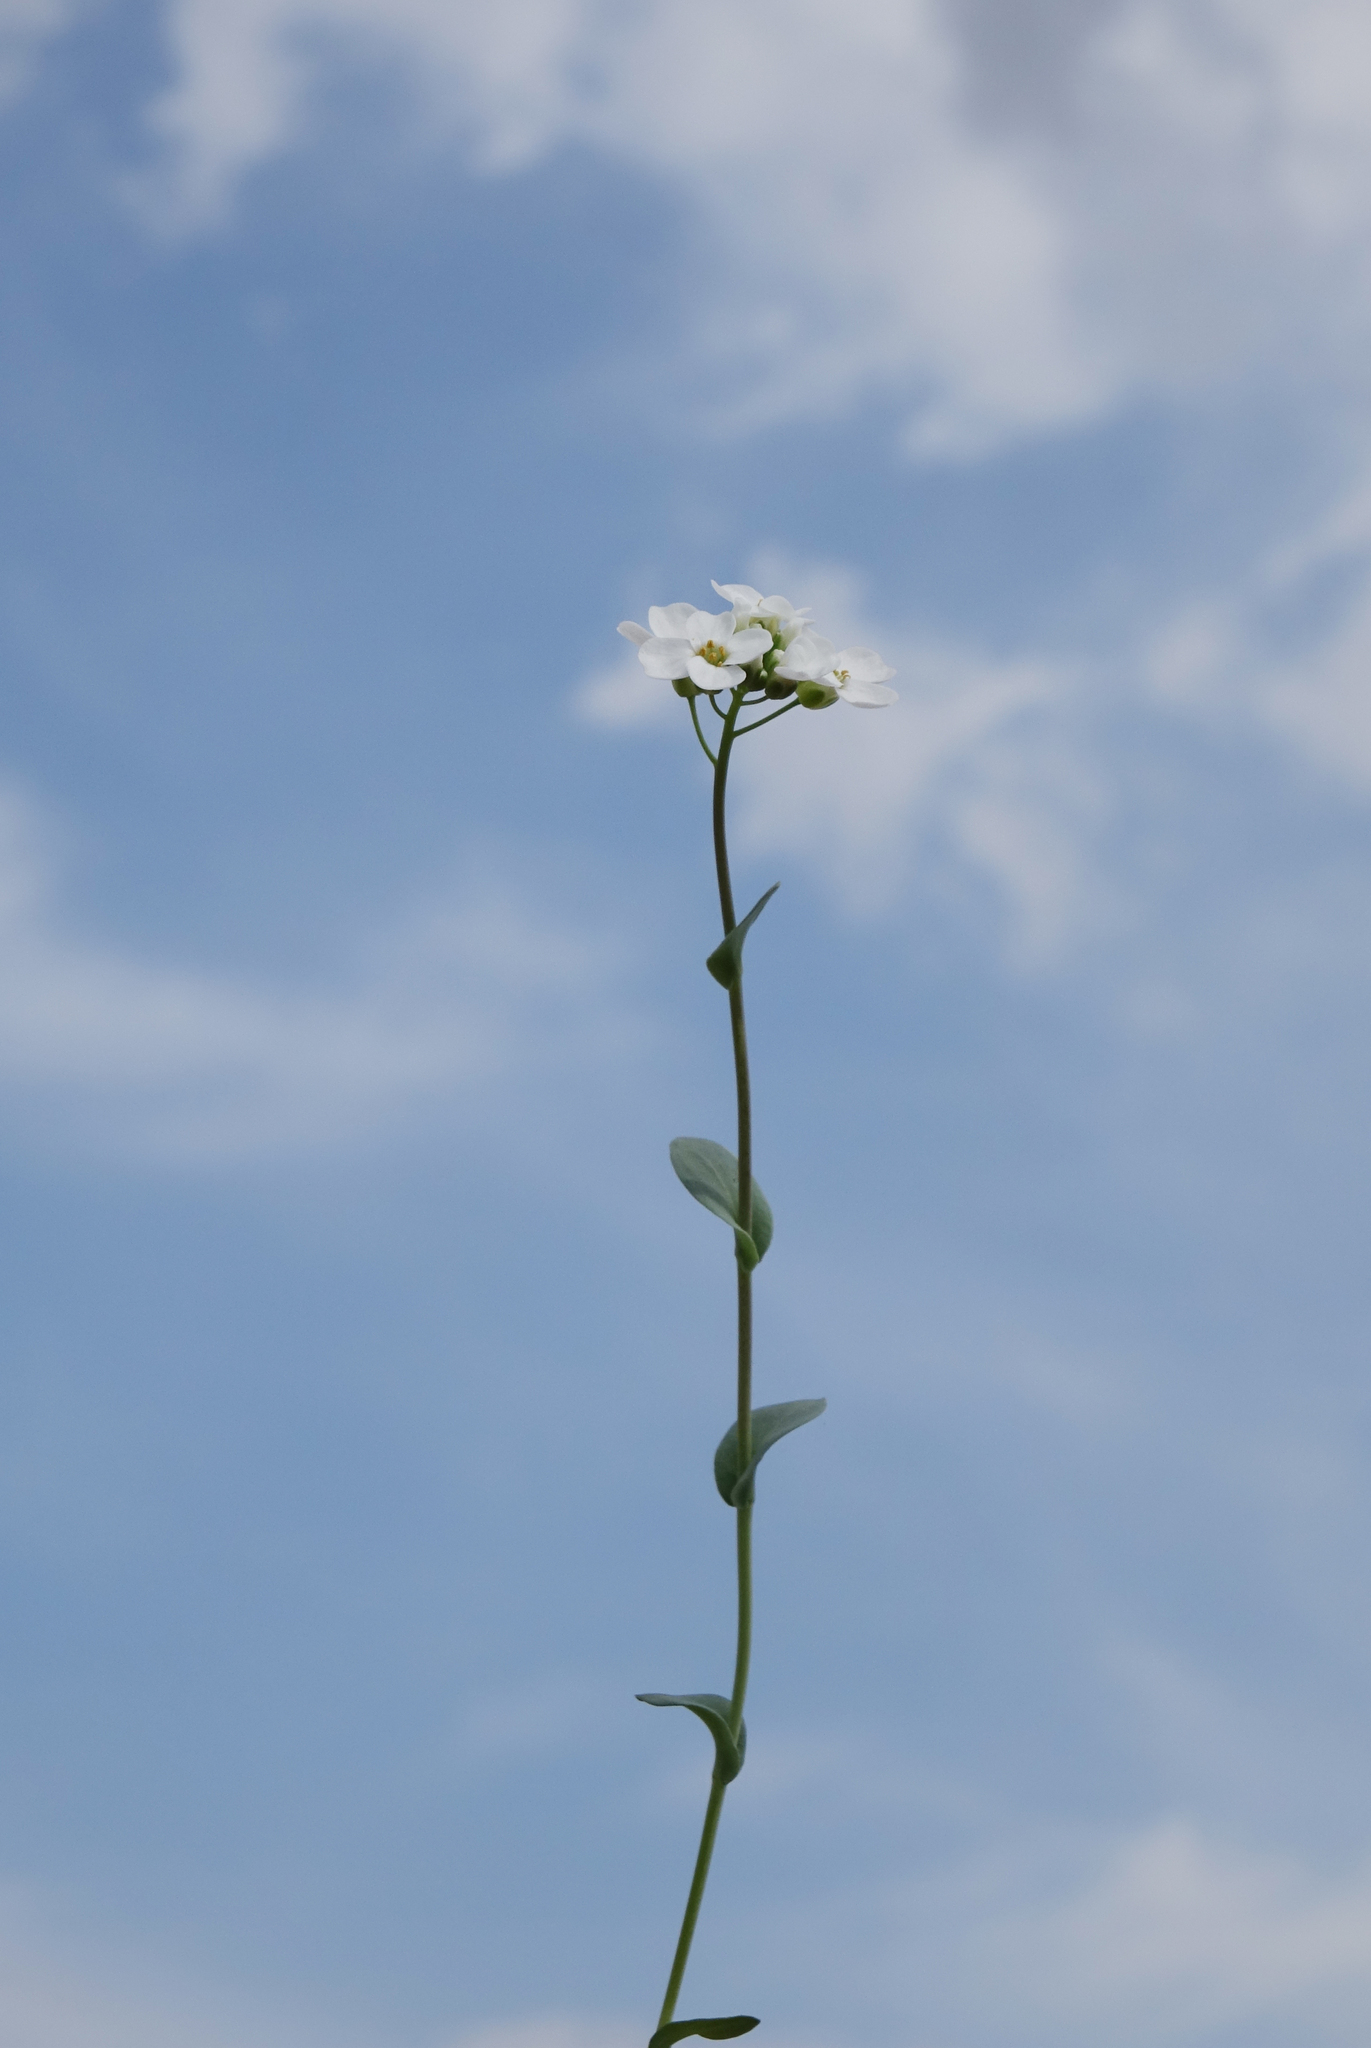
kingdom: Plantae
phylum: Tracheophyta
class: Magnoliopsida
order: Brassicales
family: Brassicaceae
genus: Noccaea
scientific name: Noccaea thlaspidioides
